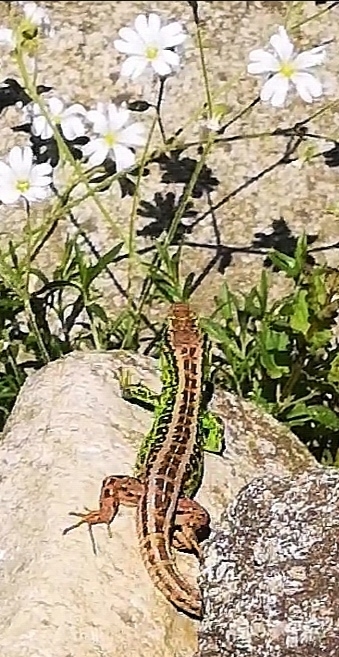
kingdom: Animalia
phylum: Chordata
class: Squamata
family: Lacertidae
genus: Lacerta
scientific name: Lacerta agilis
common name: Sand lizard
